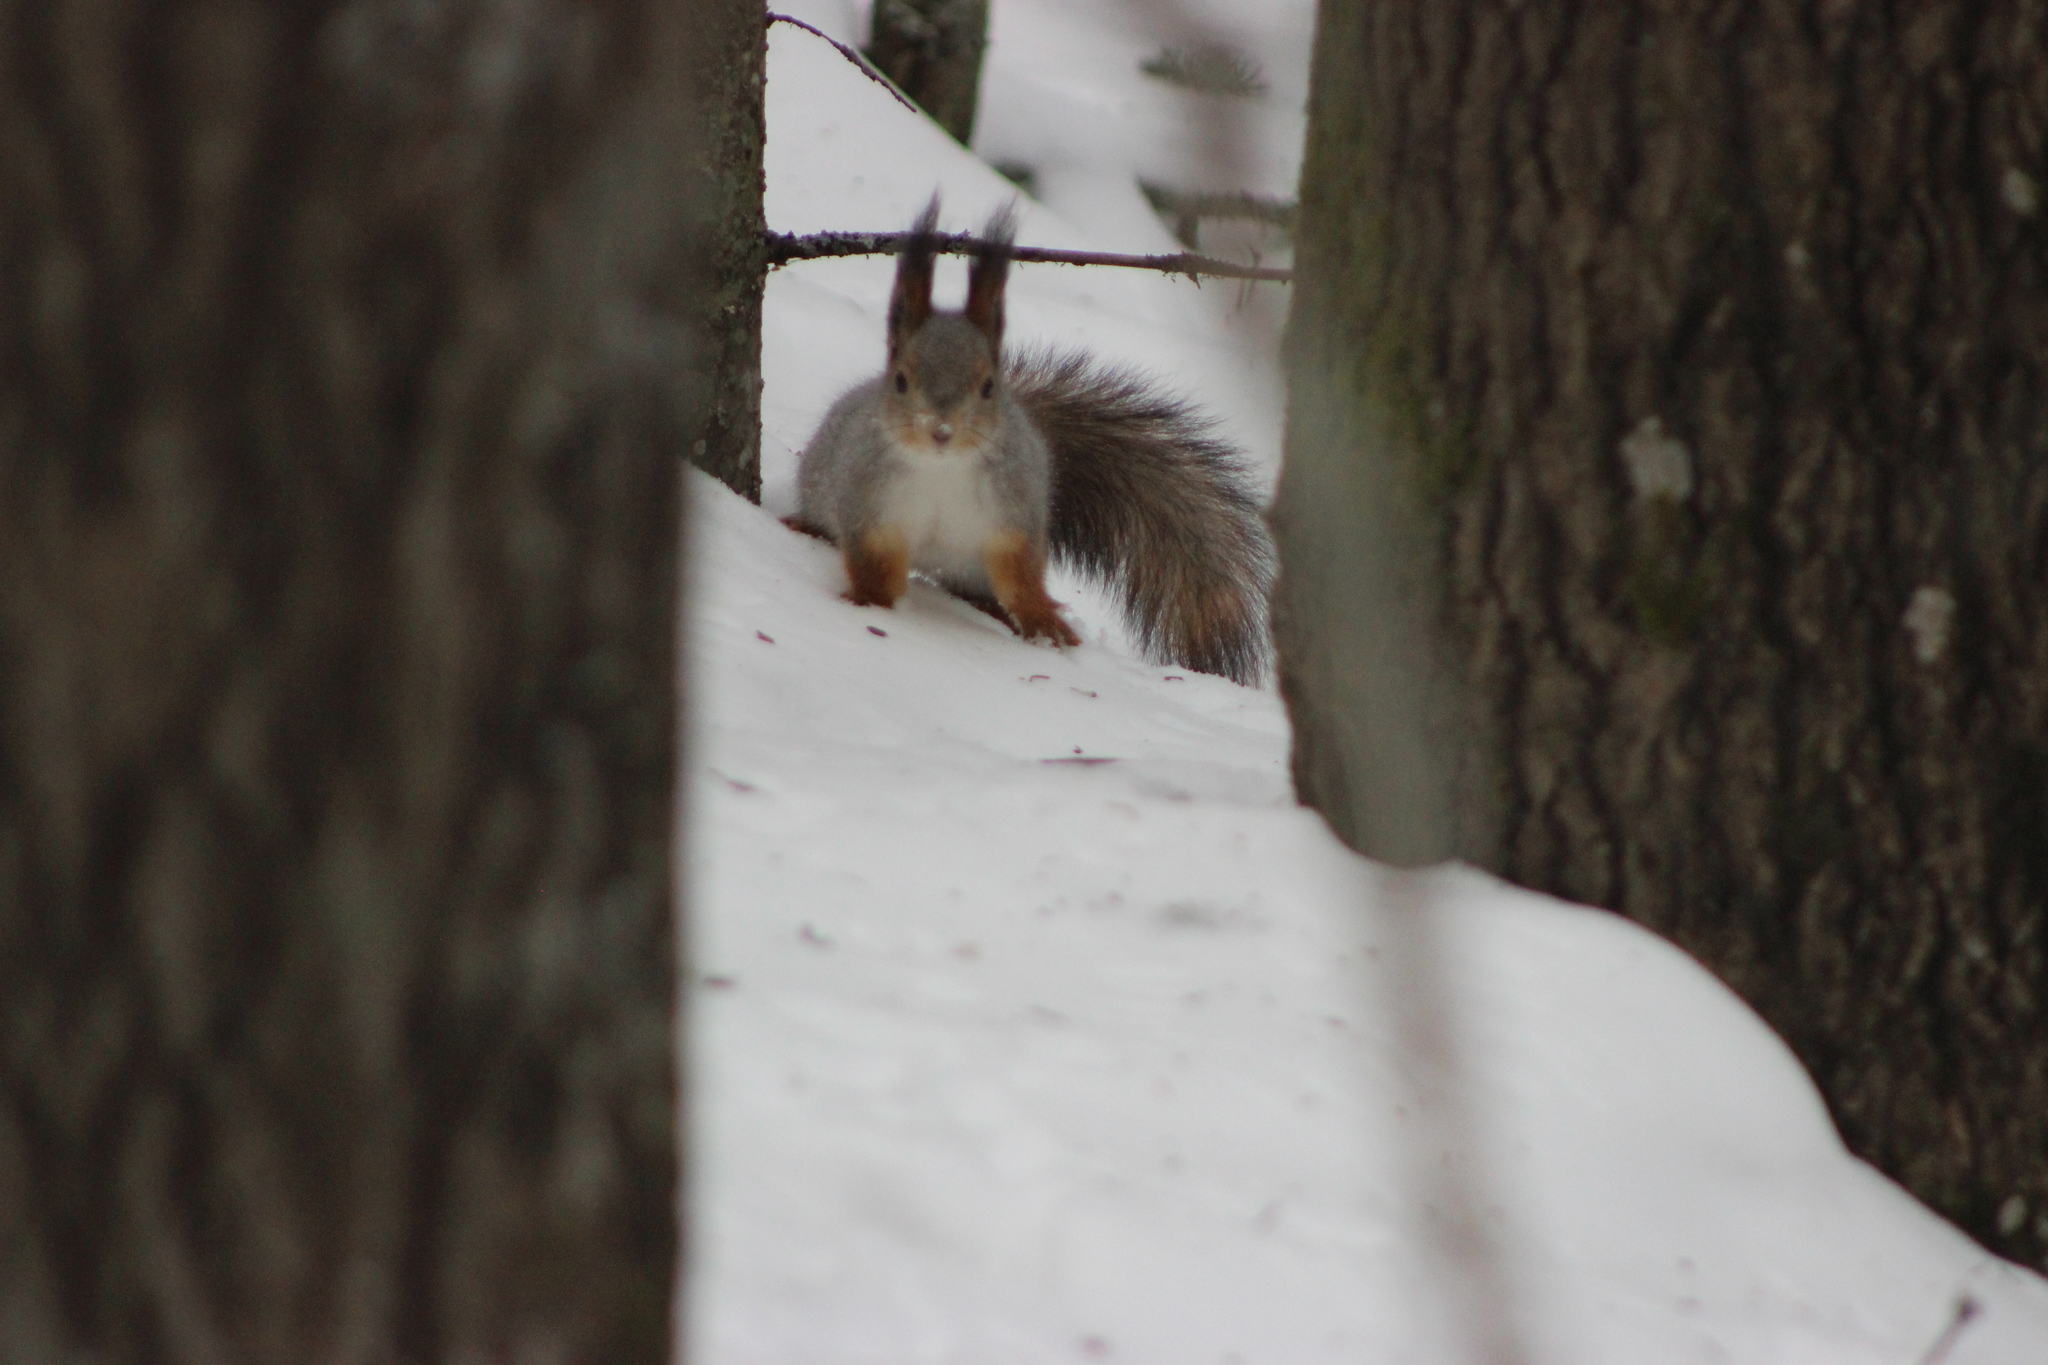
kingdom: Animalia
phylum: Chordata
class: Mammalia
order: Rodentia
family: Sciuridae
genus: Sciurus
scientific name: Sciurus vulgaris
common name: Eurasian red squirrel
